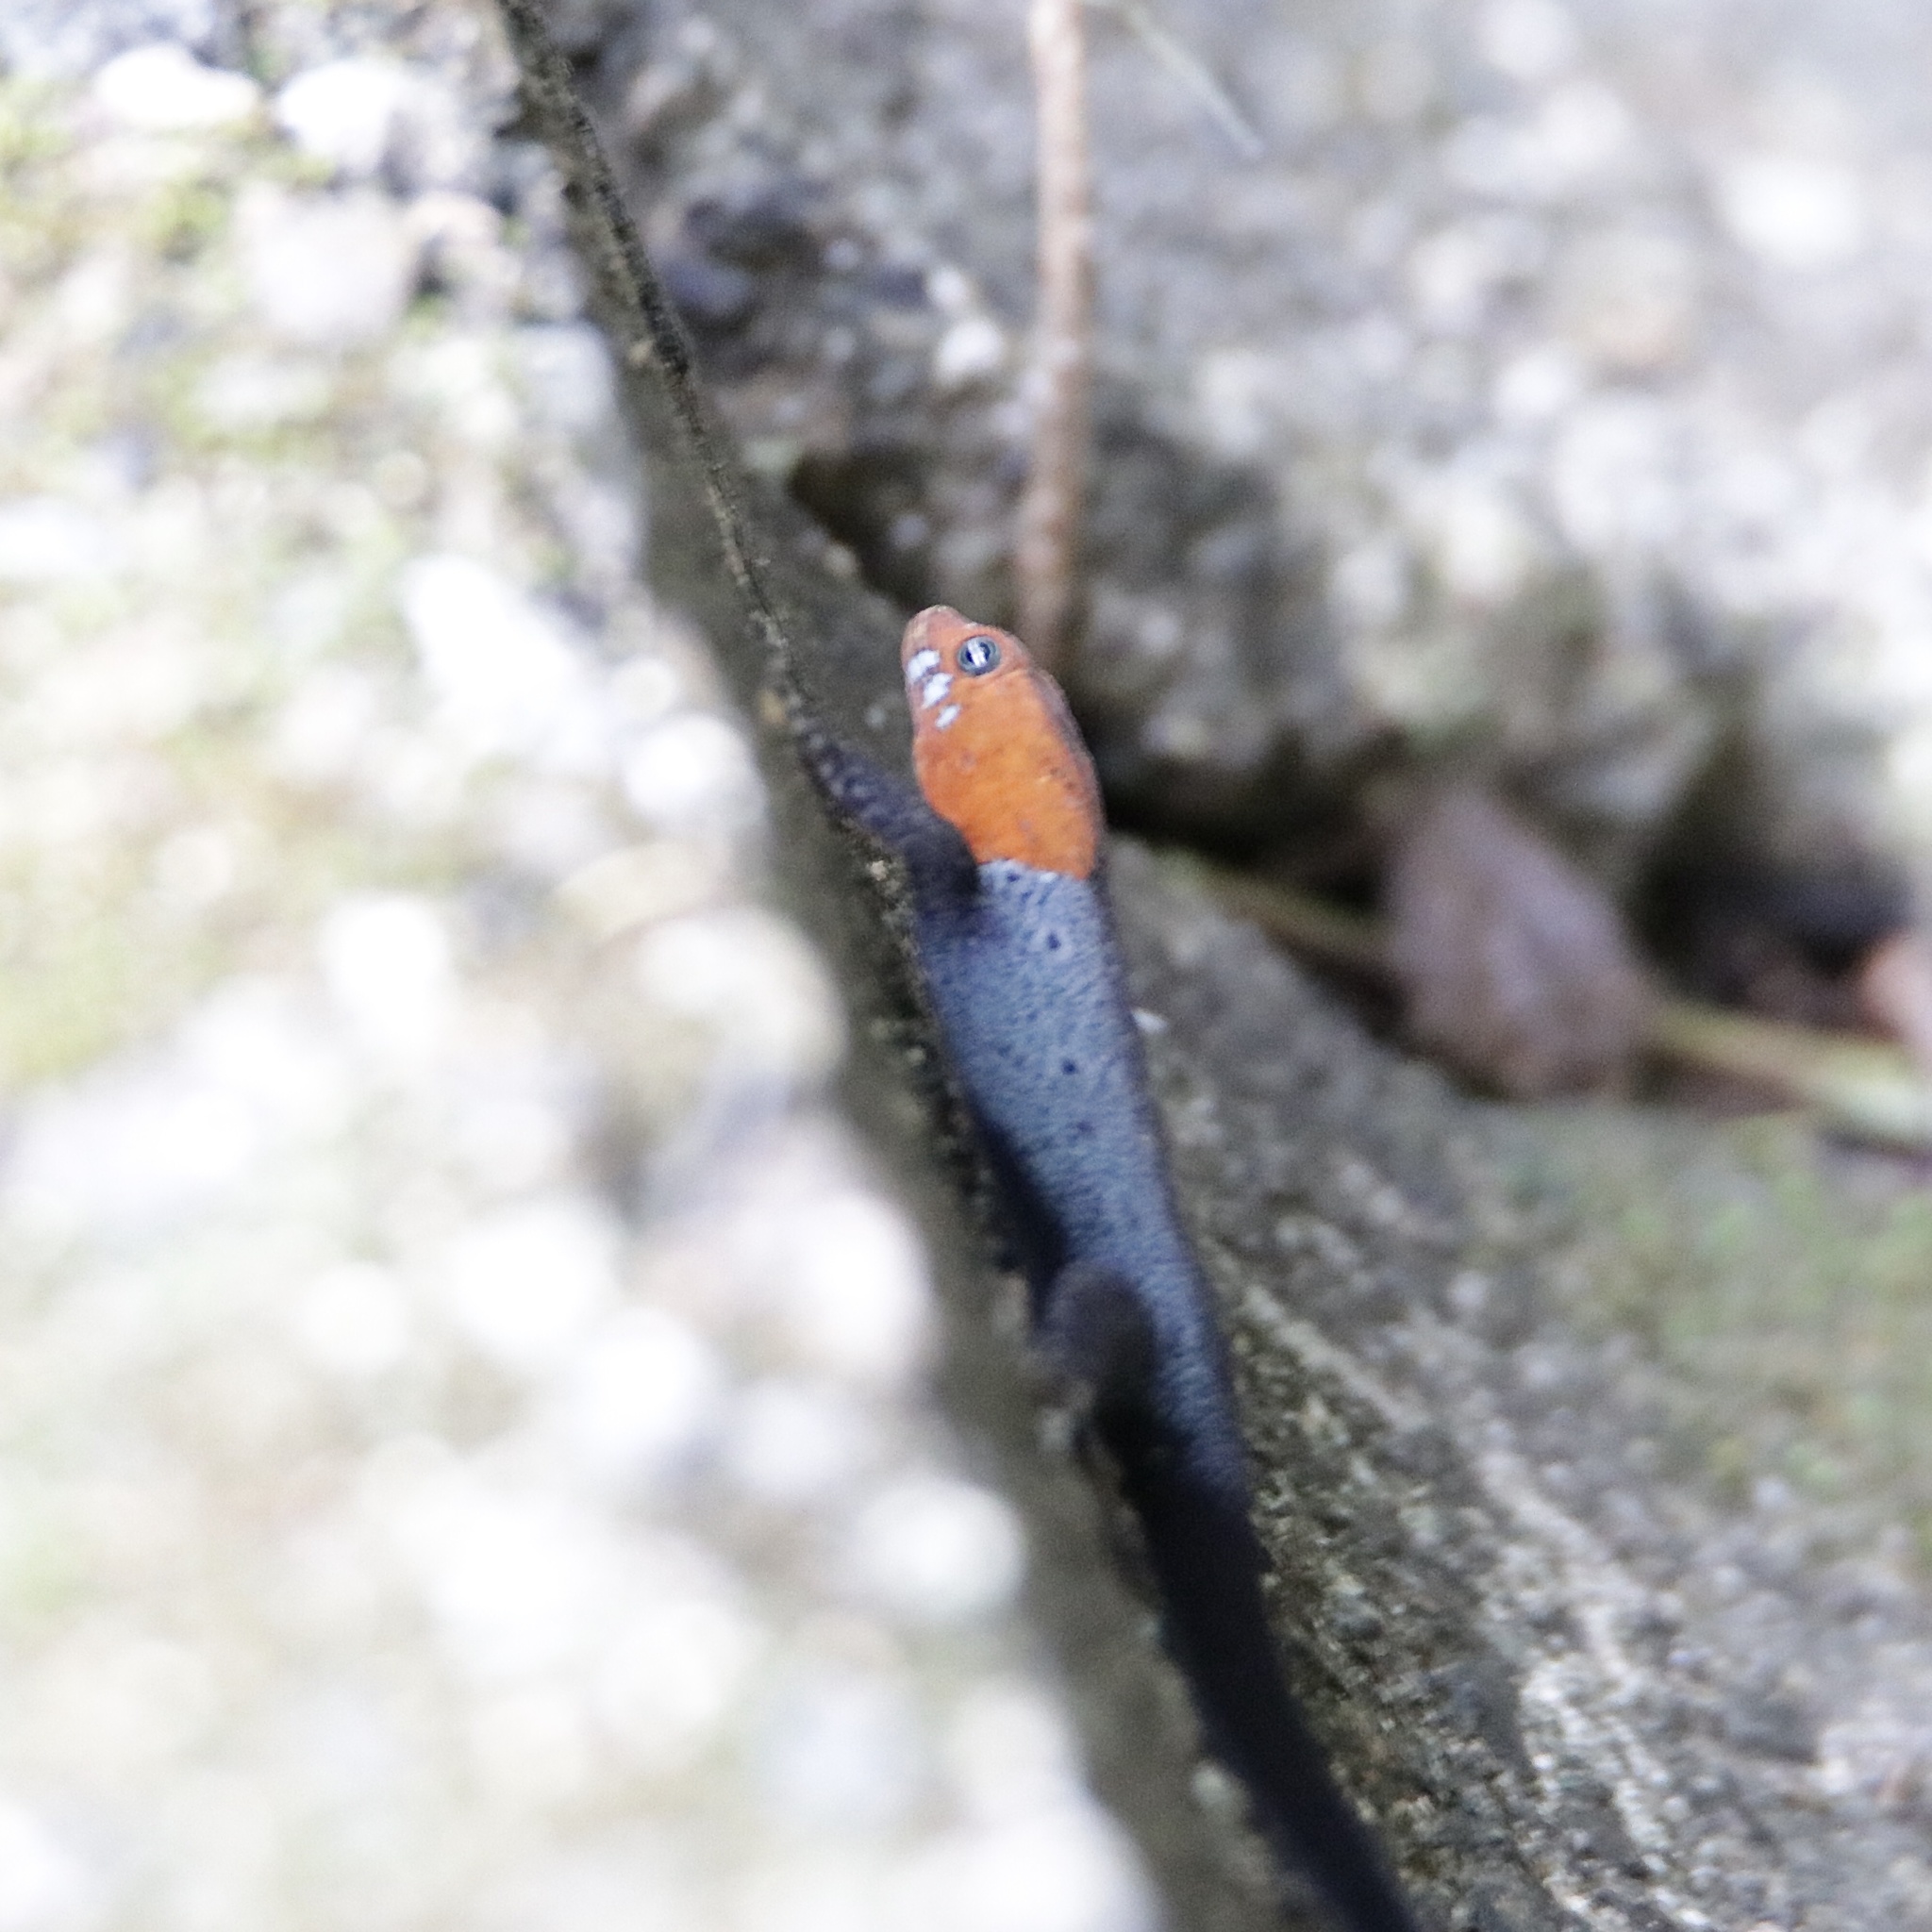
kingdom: Animalia
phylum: Chordata
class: Squamata
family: Sphaerodactylidae
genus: Gonatodes
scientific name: Gonatodes albogularis
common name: Yellow-headed gecko
